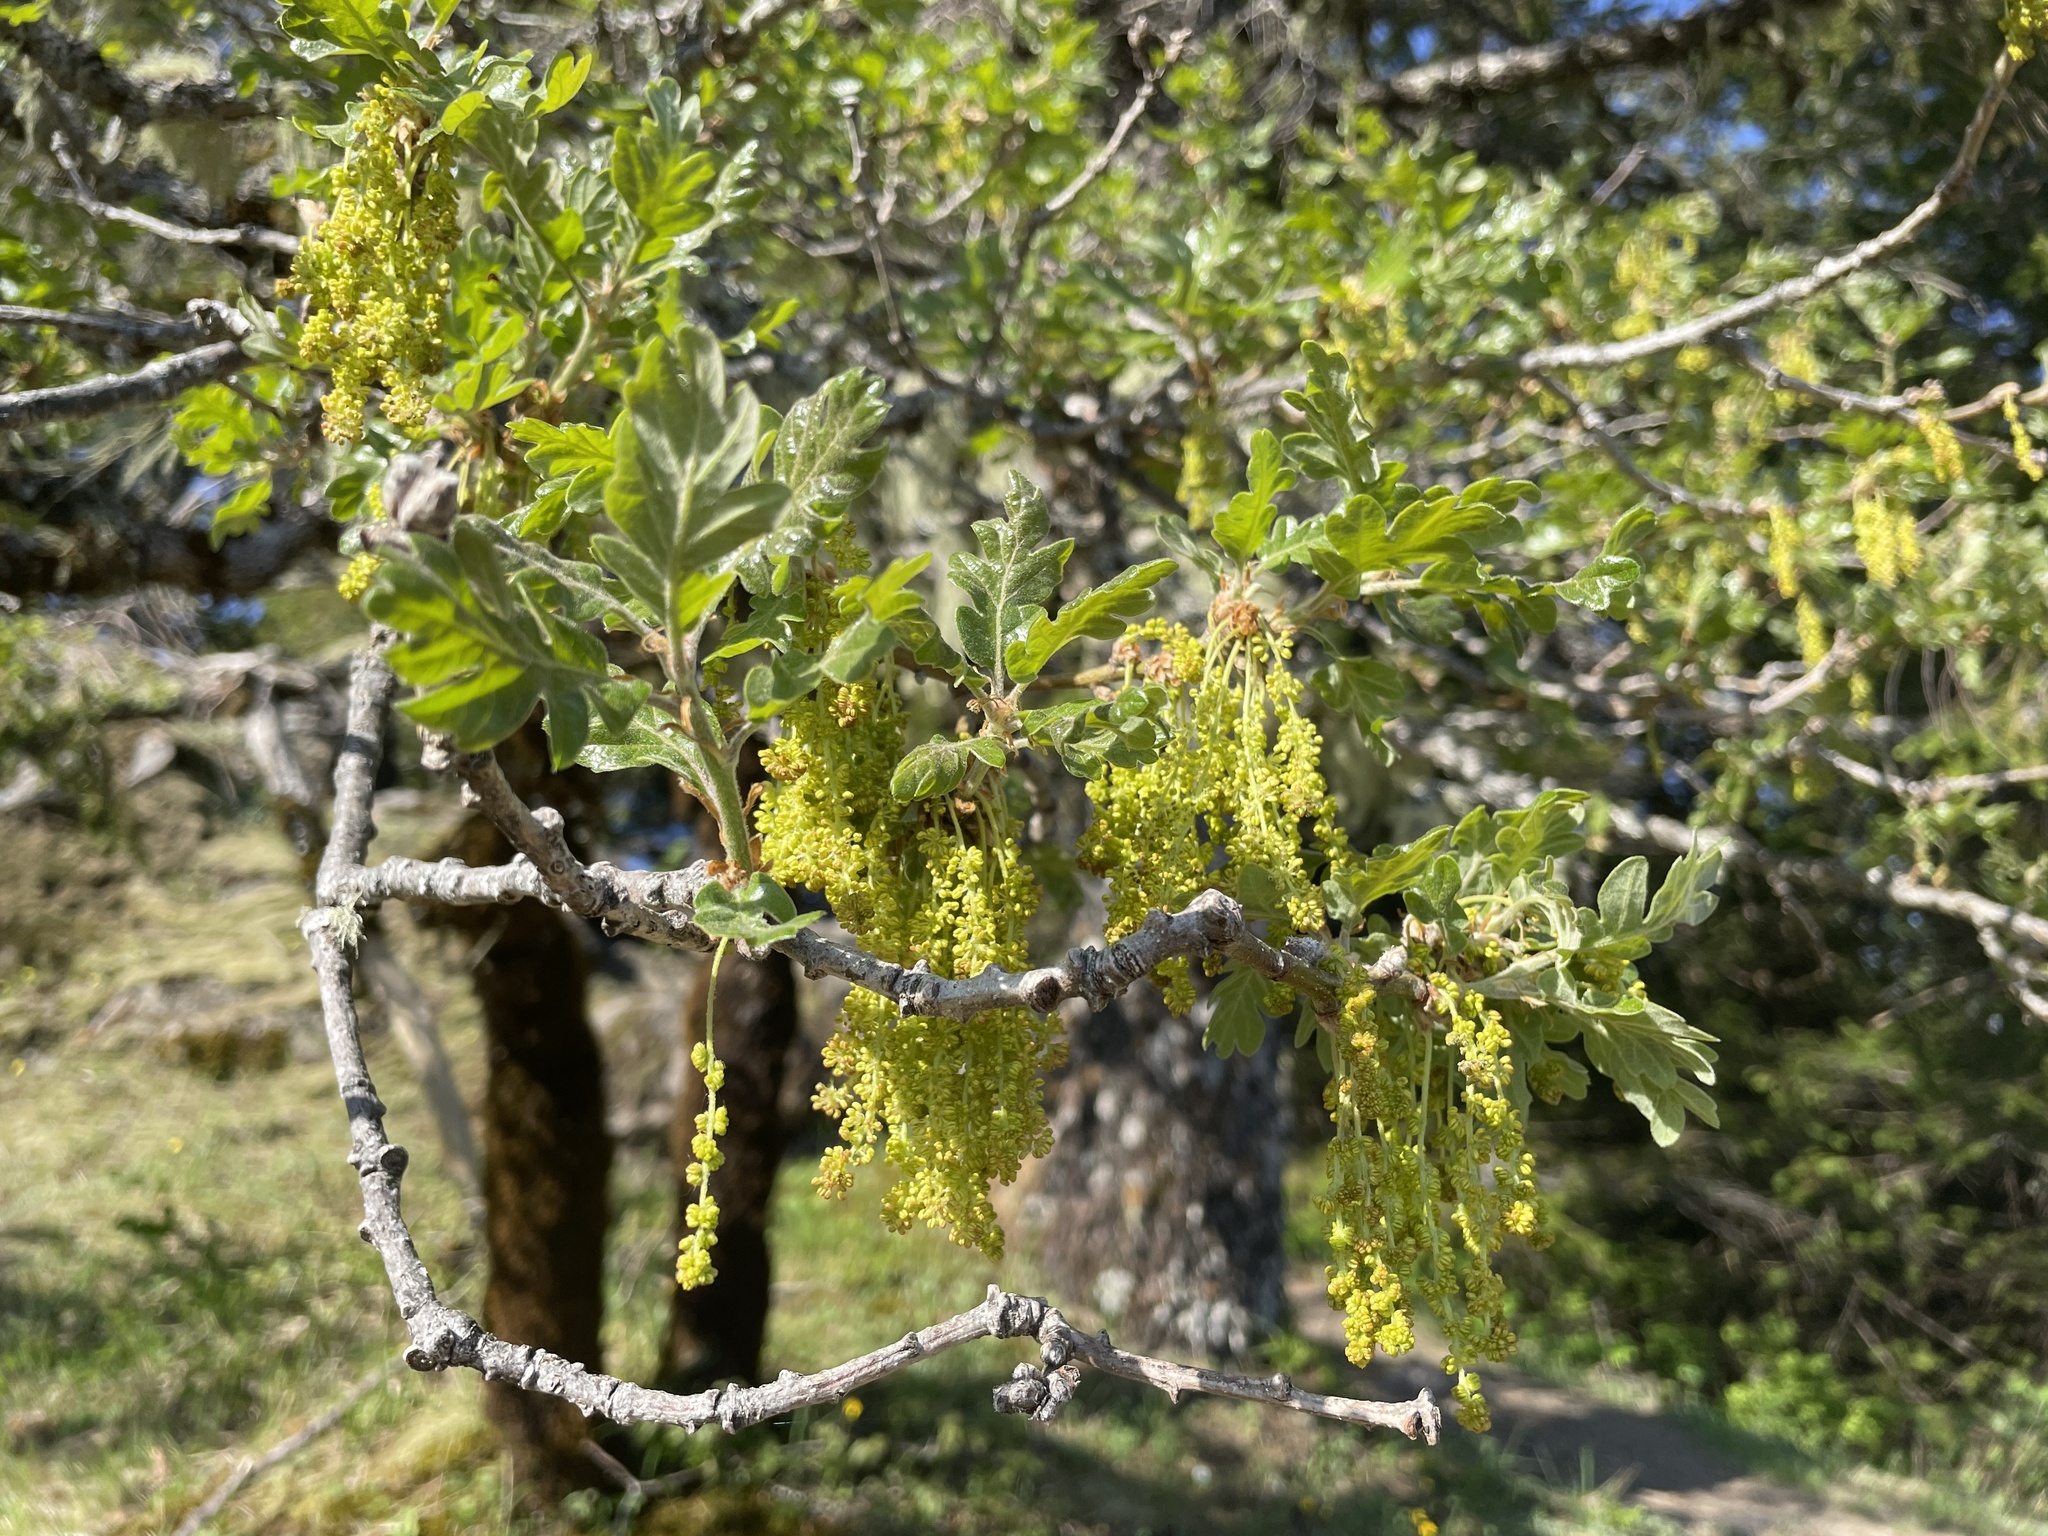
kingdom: Plantae
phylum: Tracheophyta
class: Magnoliopsida
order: Fagales
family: Fagaceae
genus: Quercus
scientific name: Quercus garryana
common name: Garry oak
